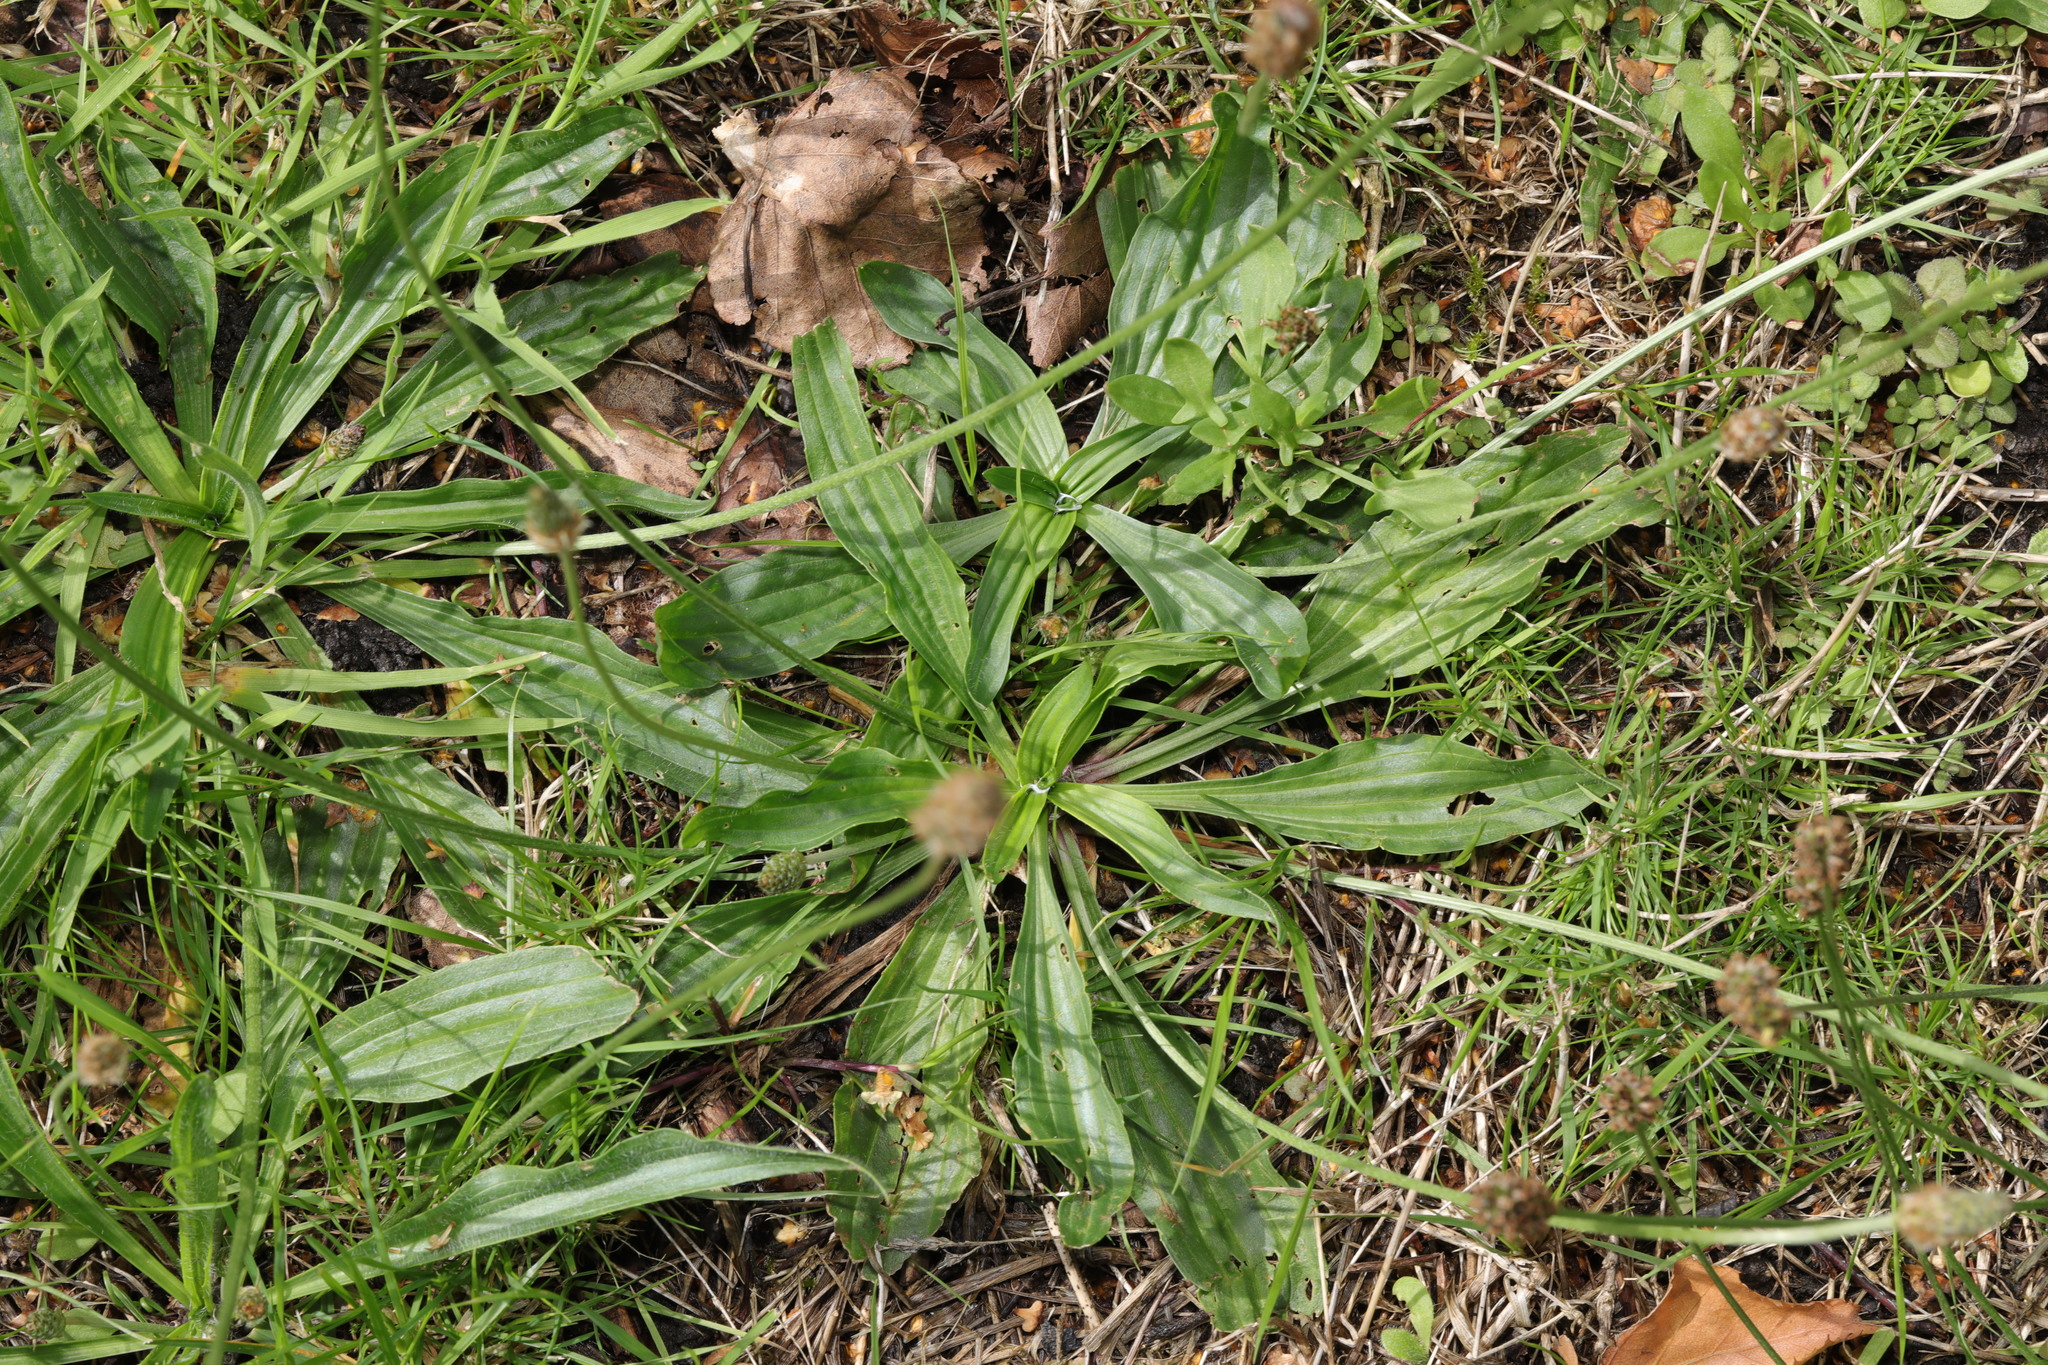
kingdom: Plantae
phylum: Tracheophyta
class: Magnoliopsida
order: Lamiales
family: Plantaginaceae
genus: Plantago
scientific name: Plantago lanceolata
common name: Ribwort plantain
